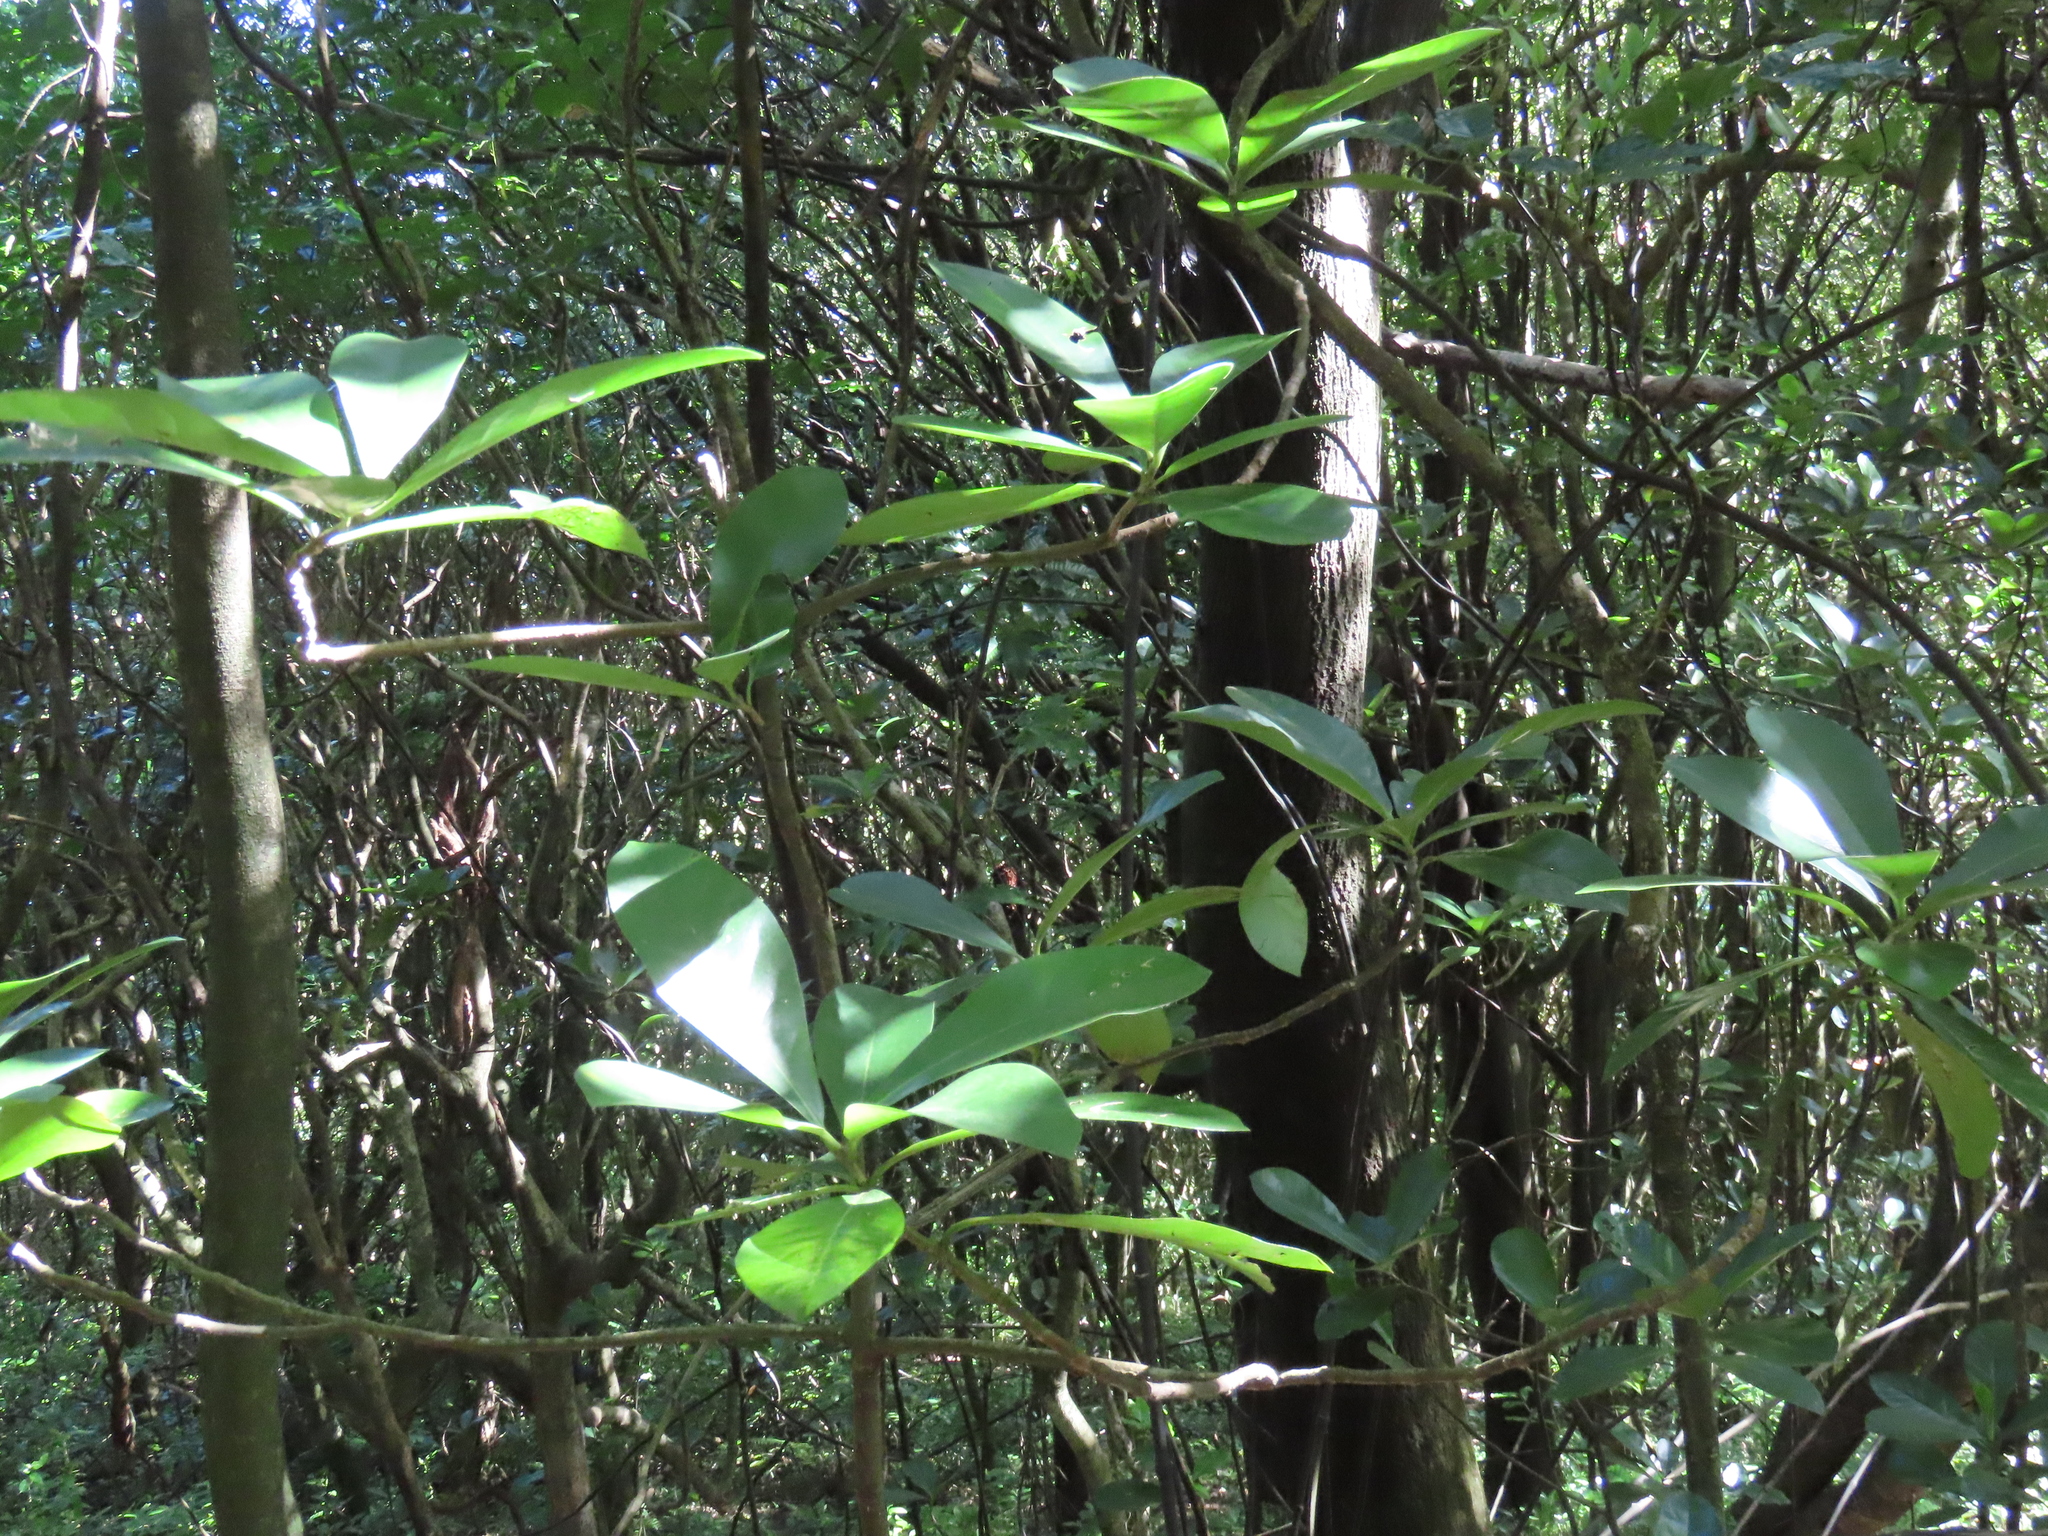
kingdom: Plantae
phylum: Tracheophyta
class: Magnoliopsida
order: Cucurbitales
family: Corynocarpaceae
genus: Corynocarpus
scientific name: Corynocarpus laevigatus
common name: New zealand laurel
